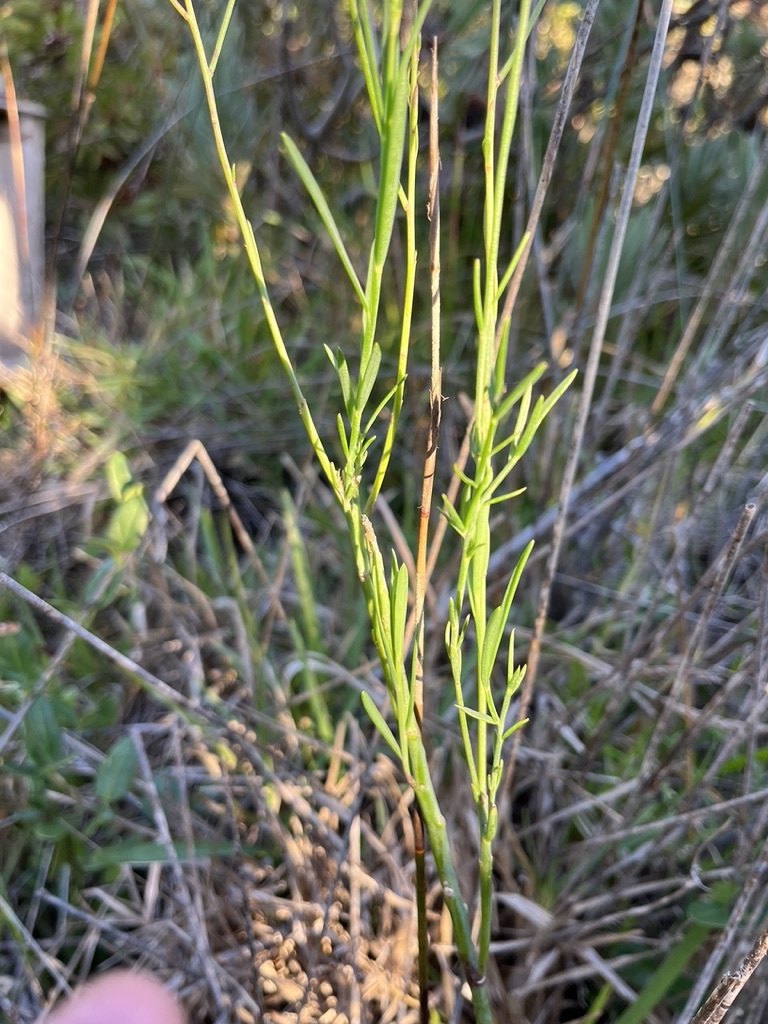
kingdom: Plantae
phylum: Tracheophyta
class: Magnoliopsida
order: Brassicales
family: Brassicaceae
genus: Heliophila
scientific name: Heliophila linearis
